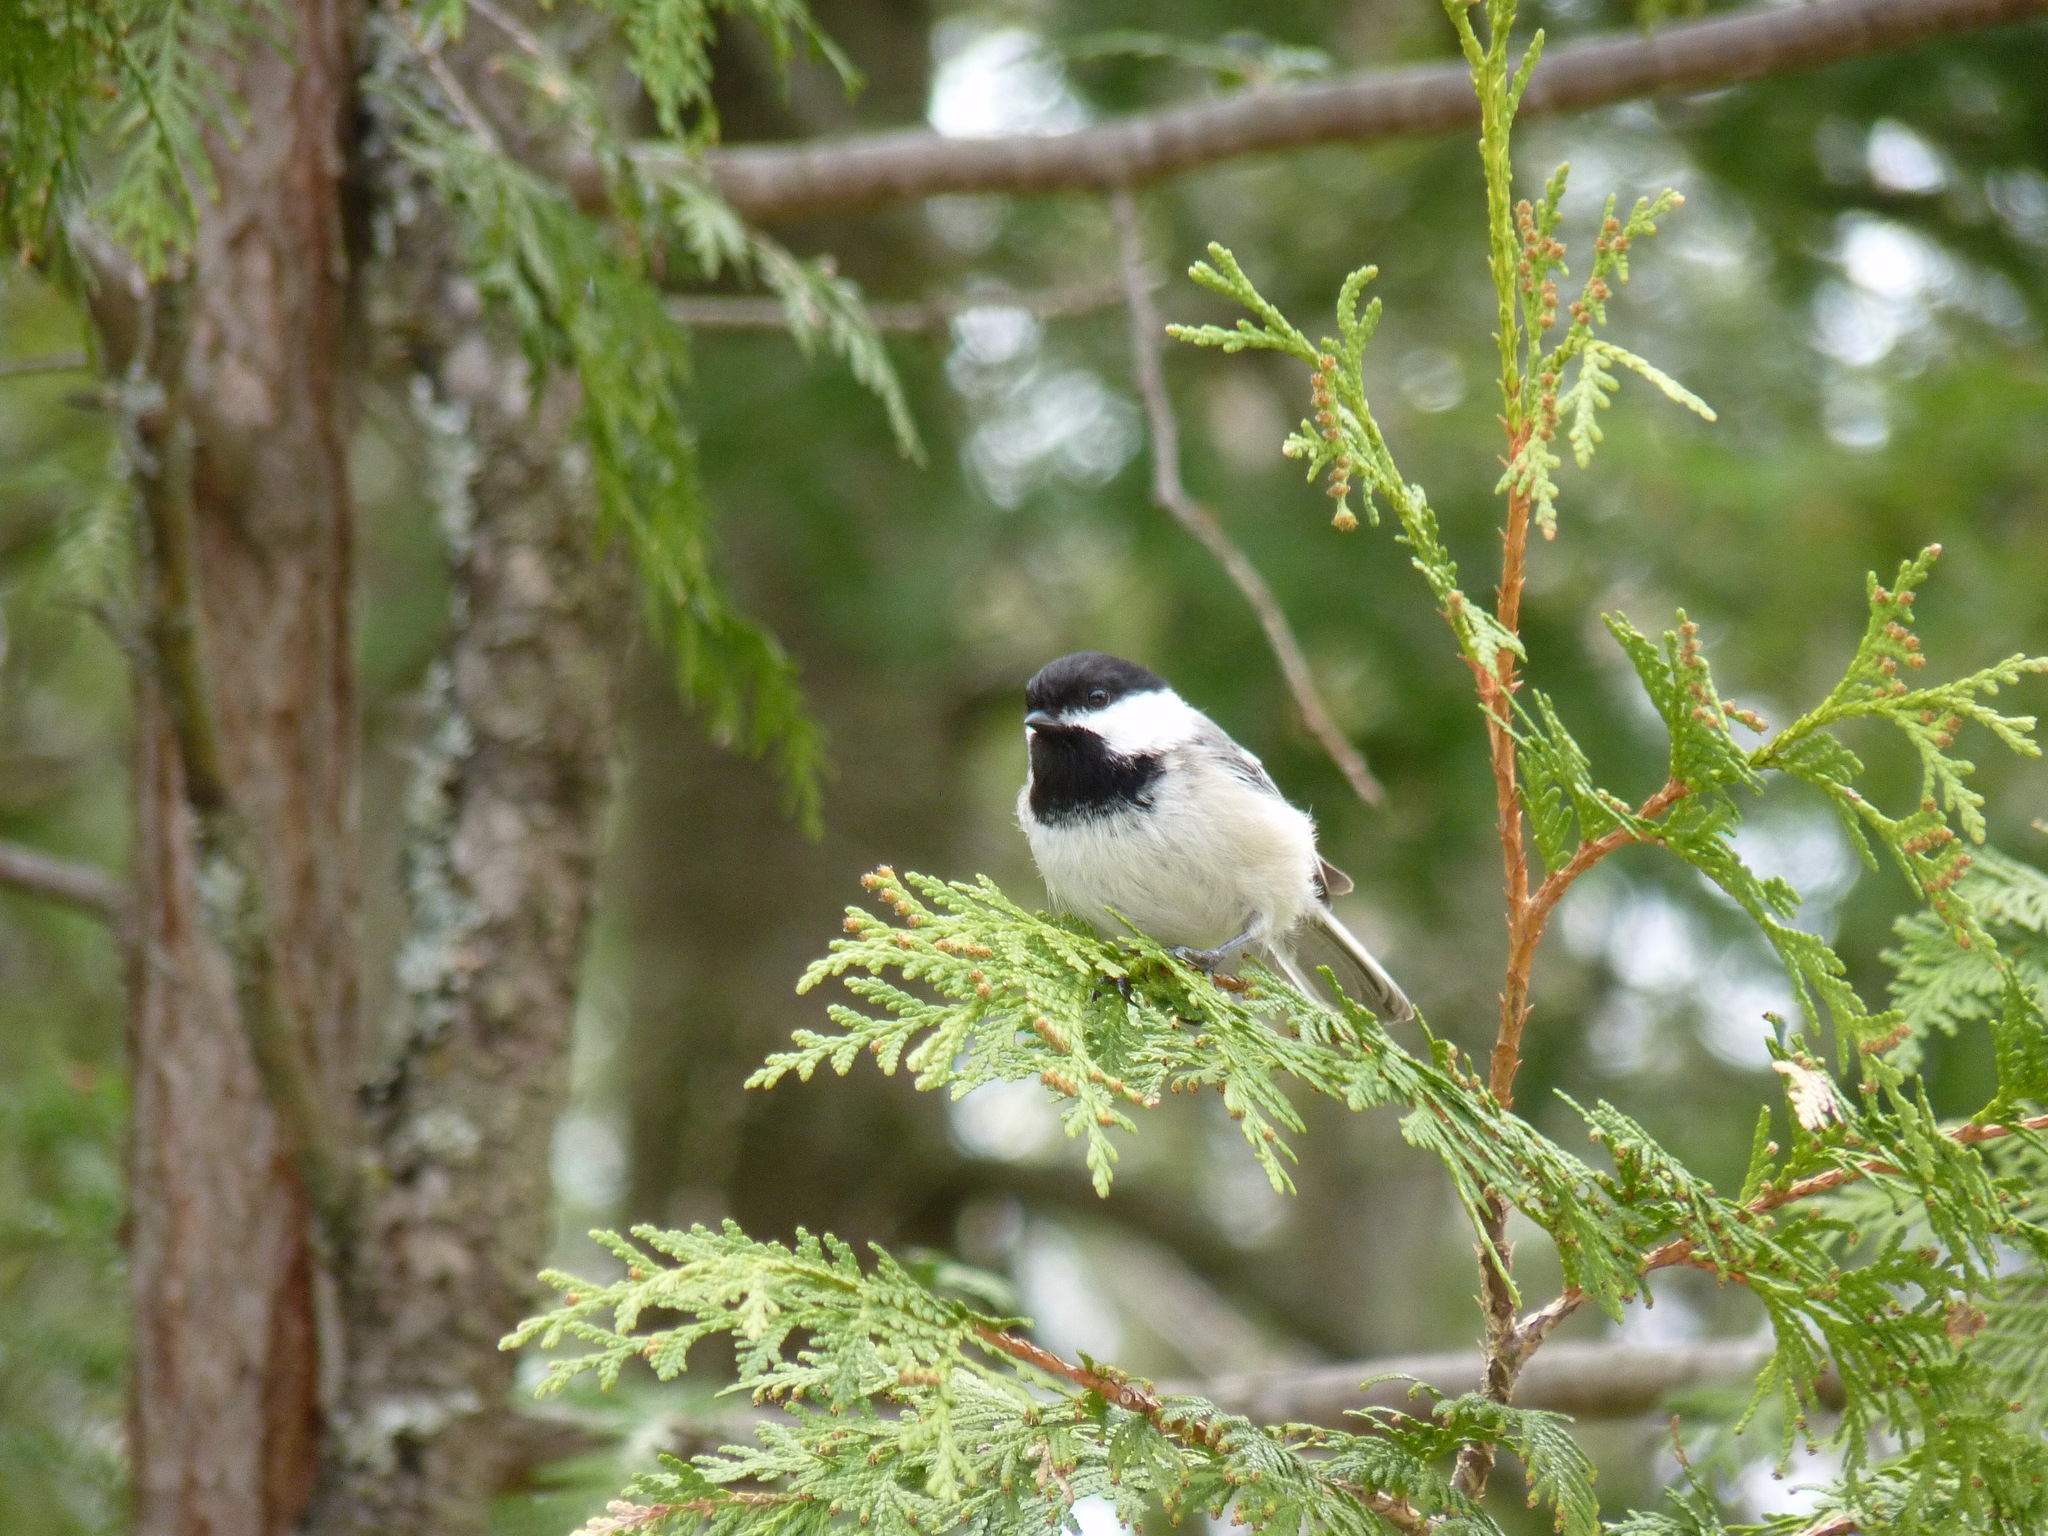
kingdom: Animalia
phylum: Chordata
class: Aves
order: Passeriformes
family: Paridae
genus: Poecile
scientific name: Poecile atricapillus
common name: Black-capped chickadee
